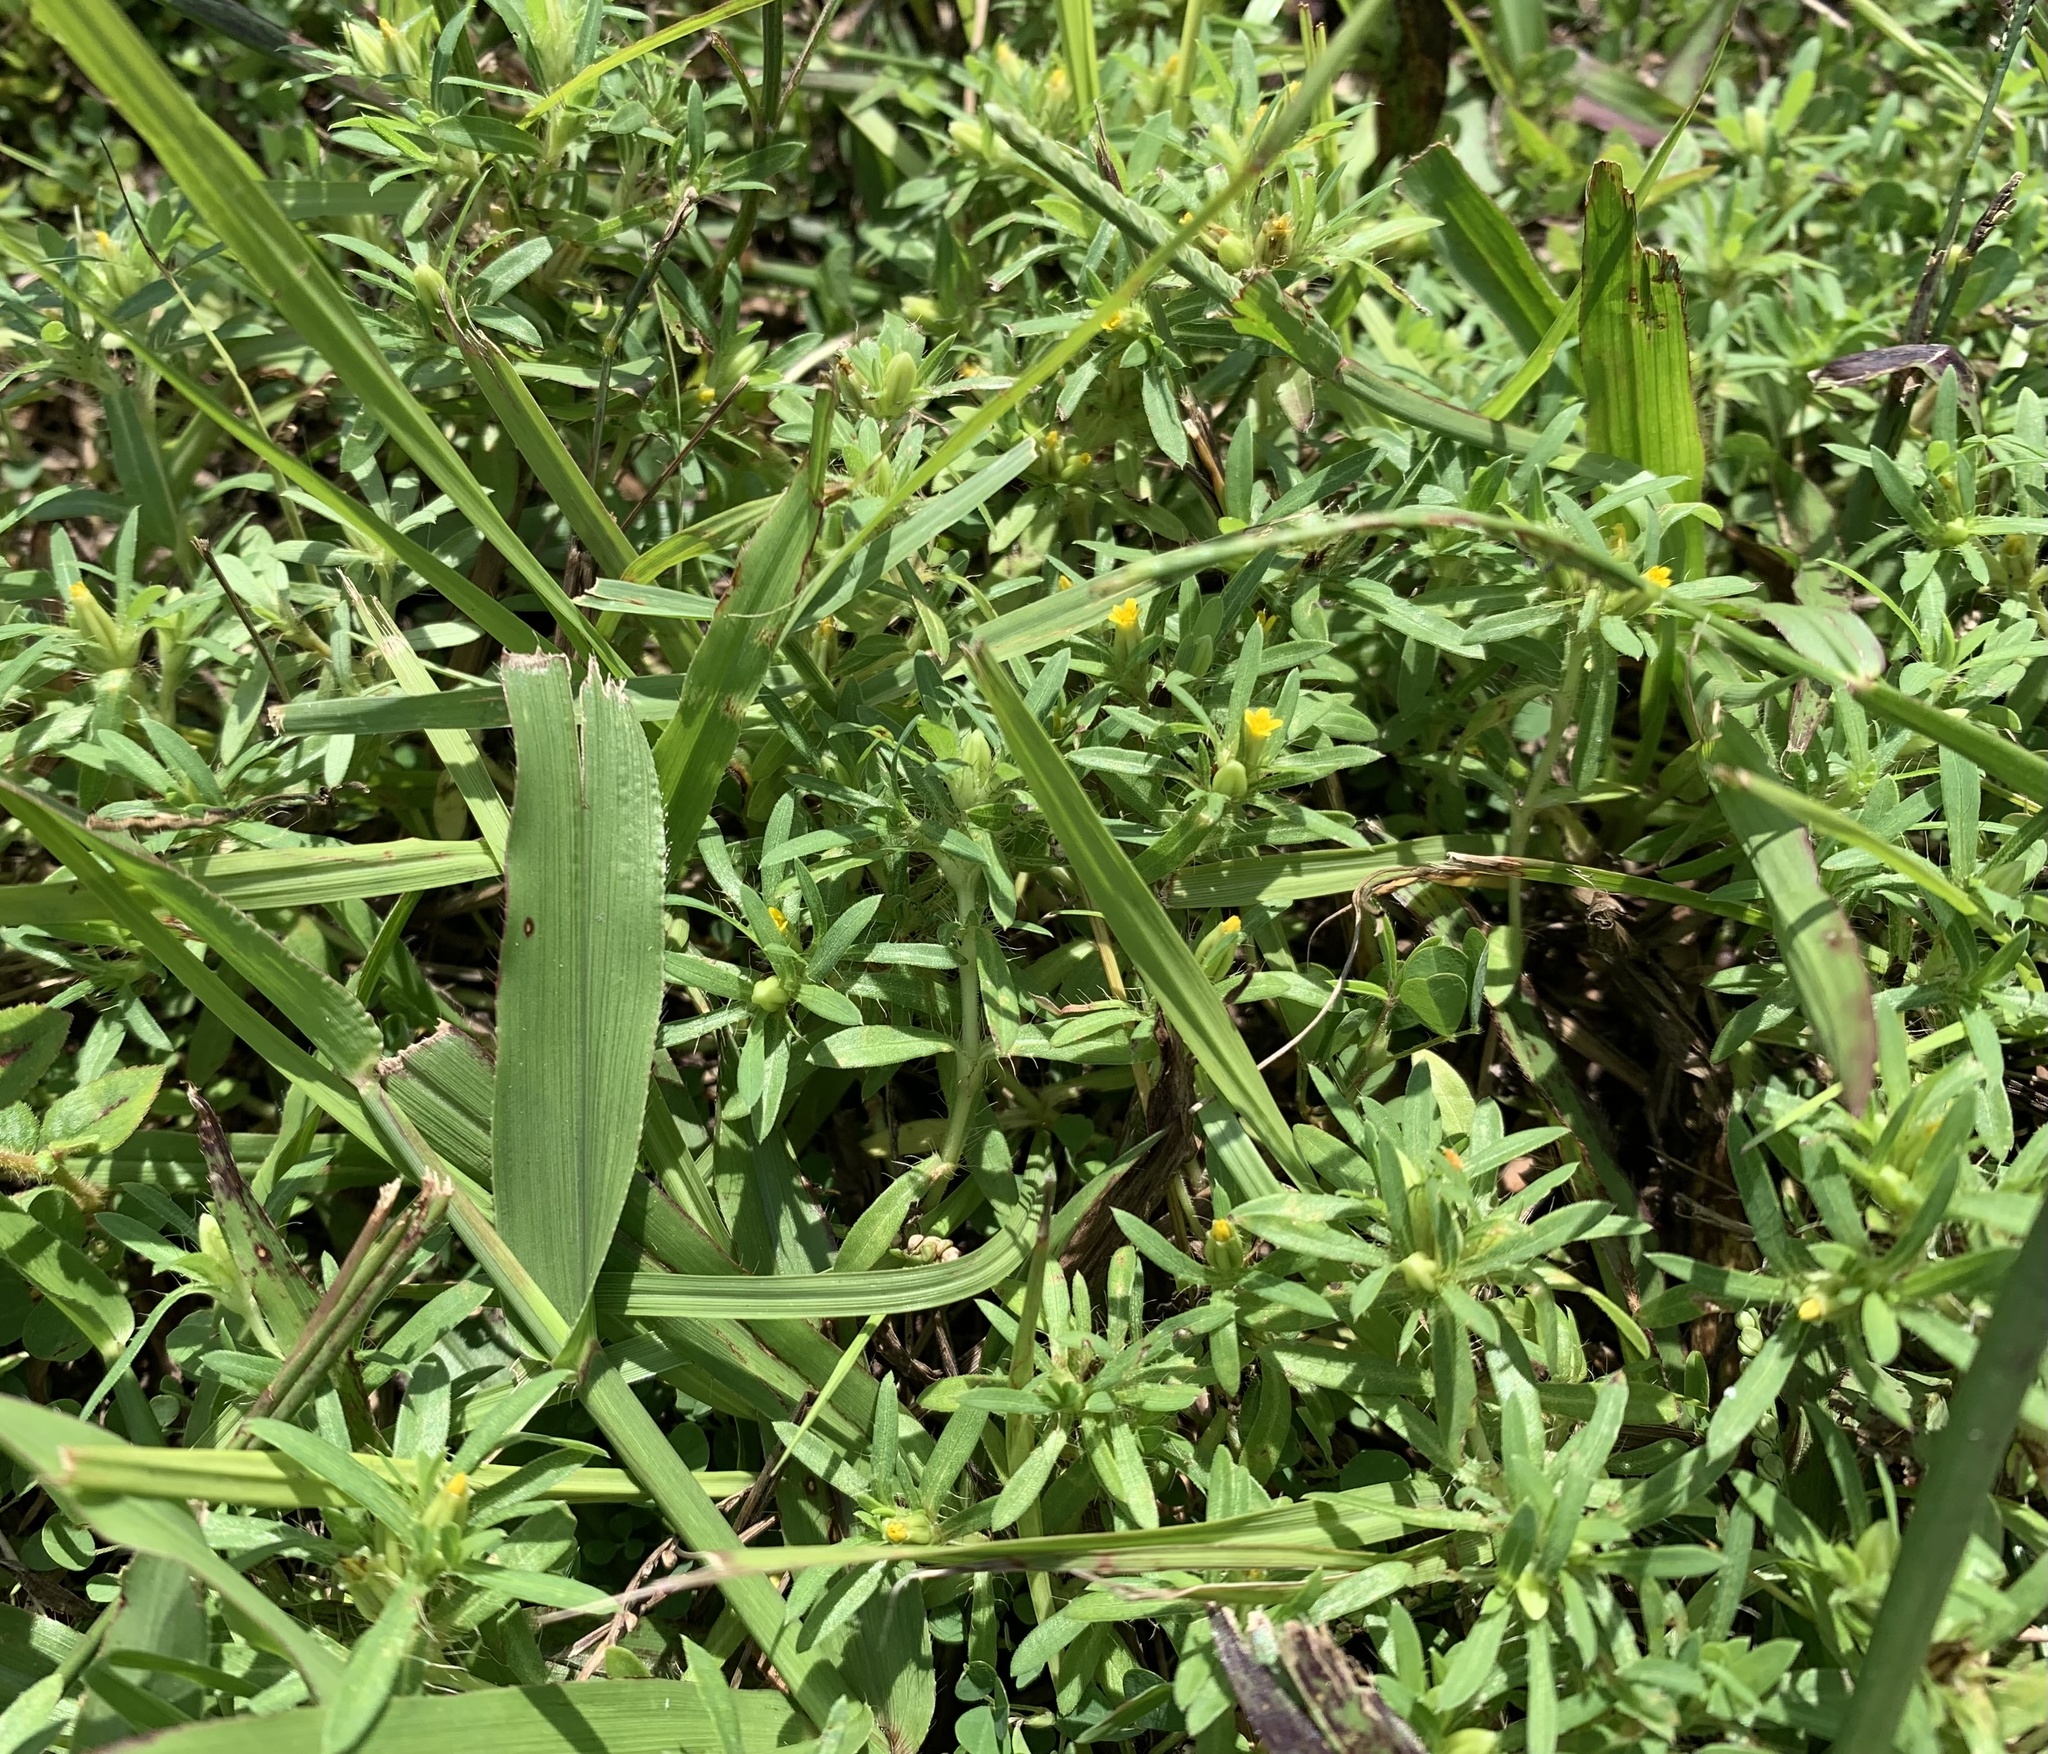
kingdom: Plantae
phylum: Tracheophyta
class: Magnoliopsida
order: Asterales
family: Asteraceae
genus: Pectis
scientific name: Pectis prostrata
